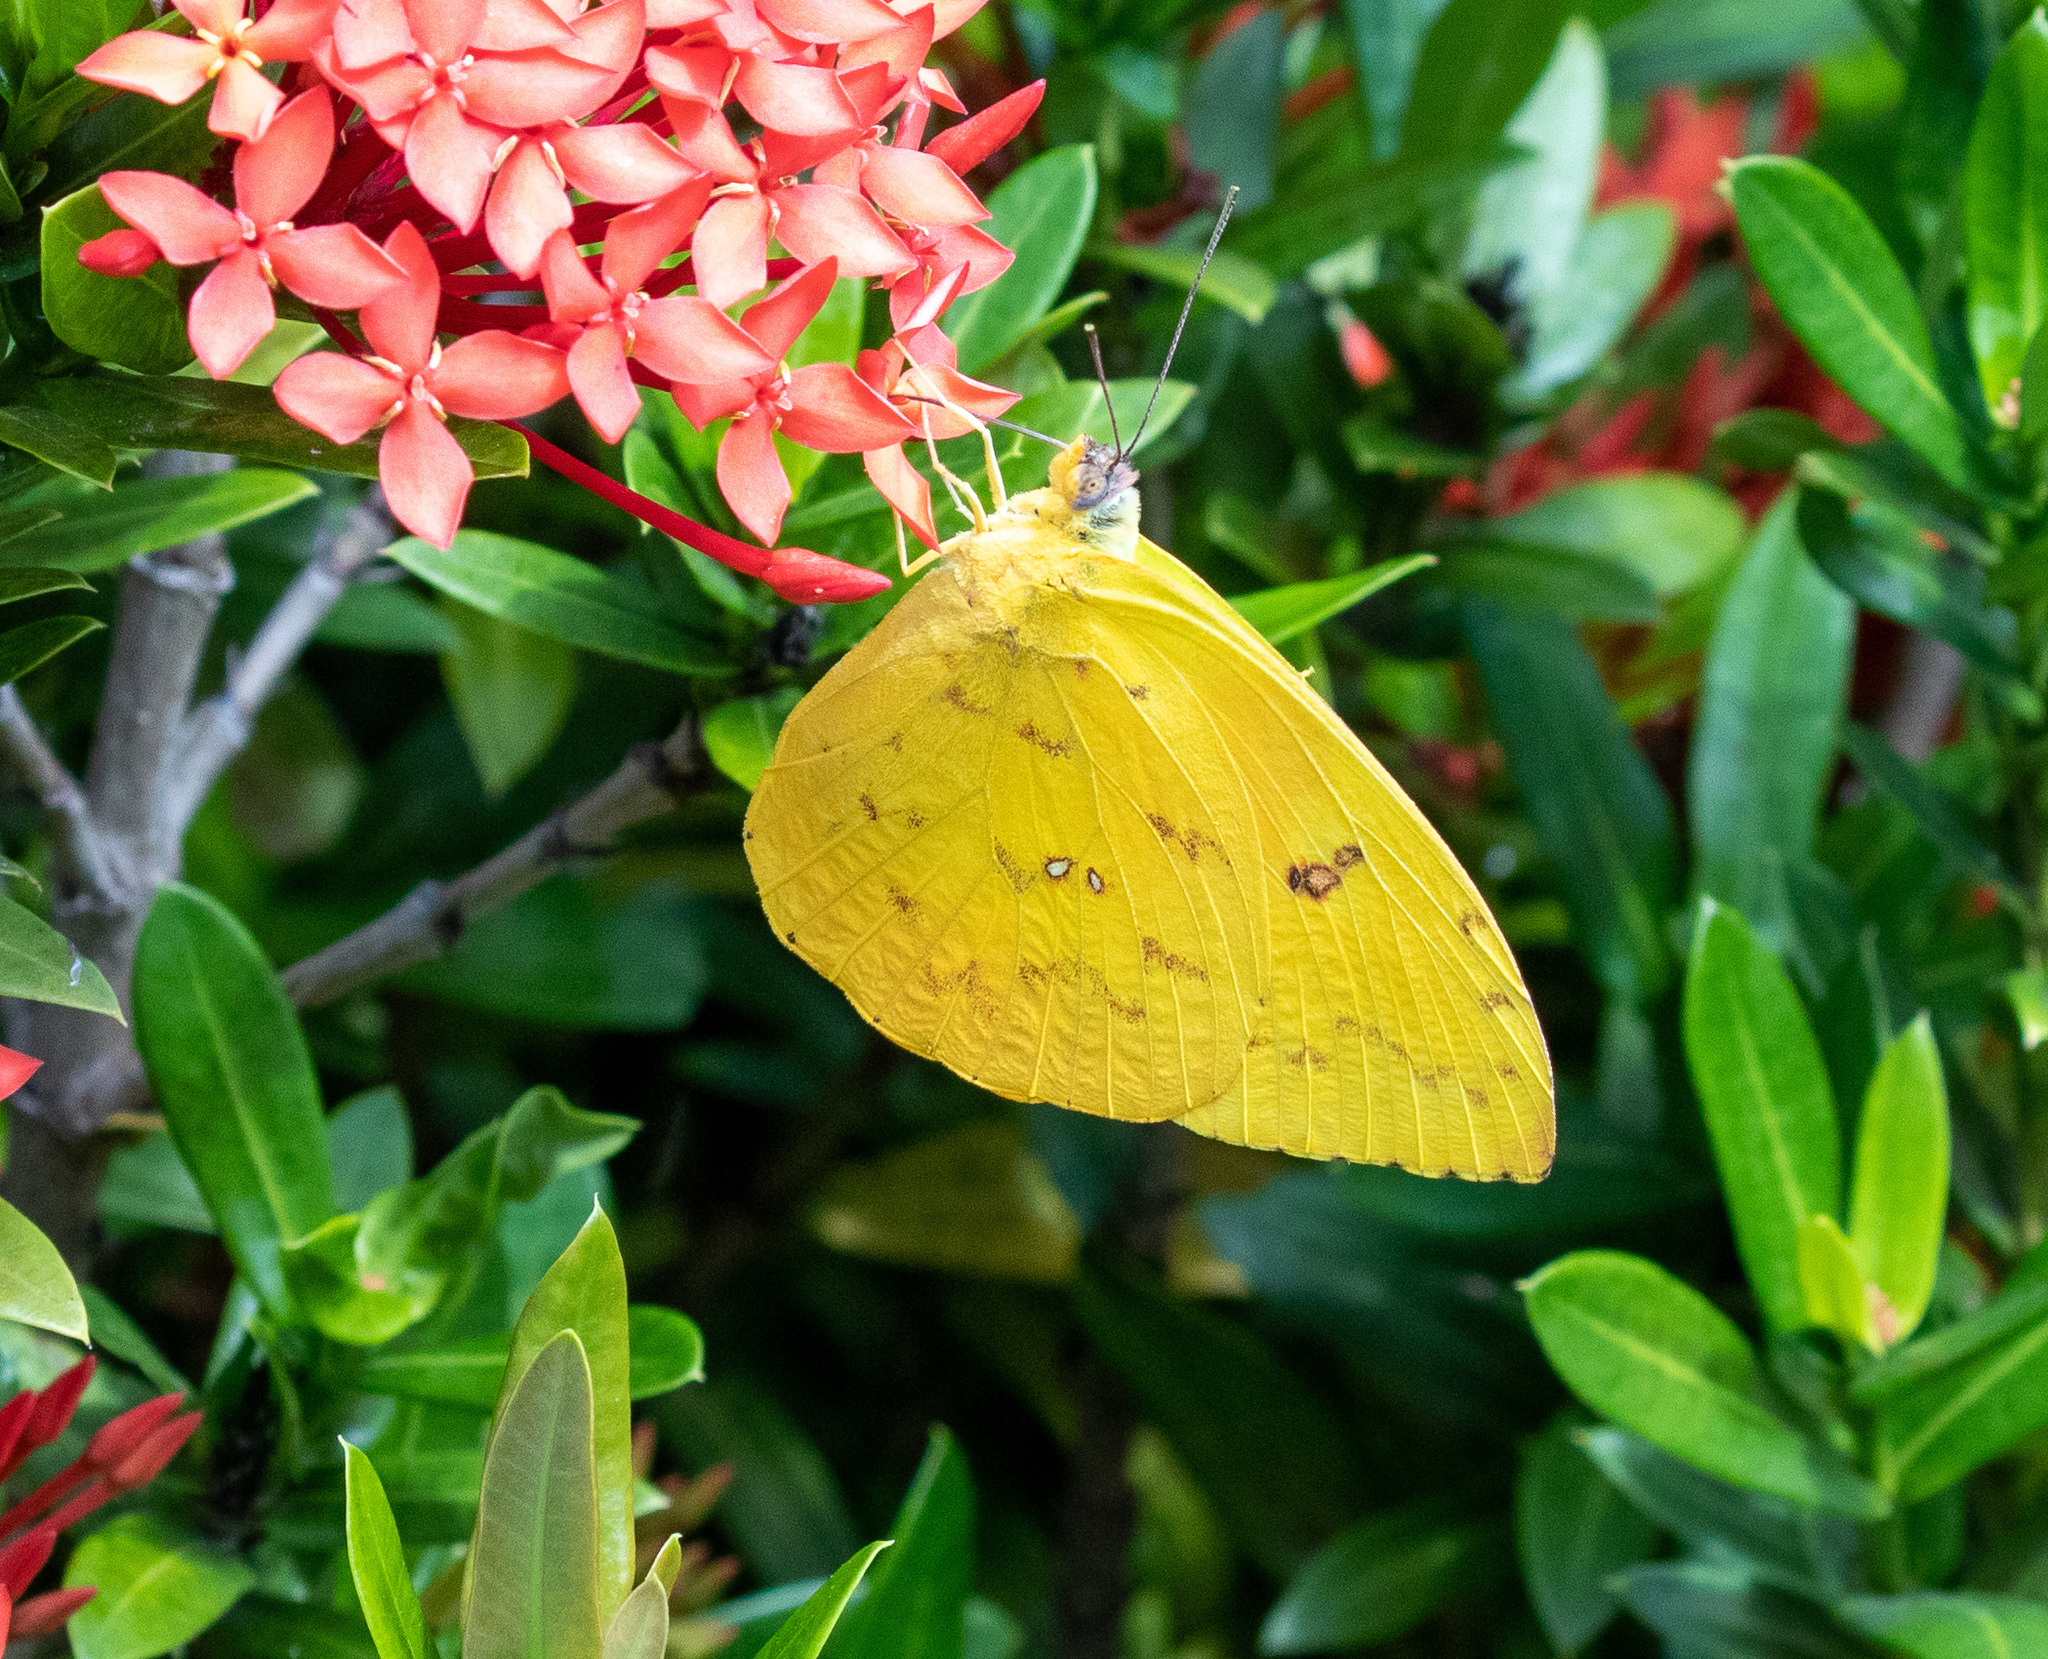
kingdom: Animalia
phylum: Arthropoda
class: Insecta
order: Lepidoptera
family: Pieridae
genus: Phoebis
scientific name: Phoebis philea
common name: Orange-barred giant sulphur
